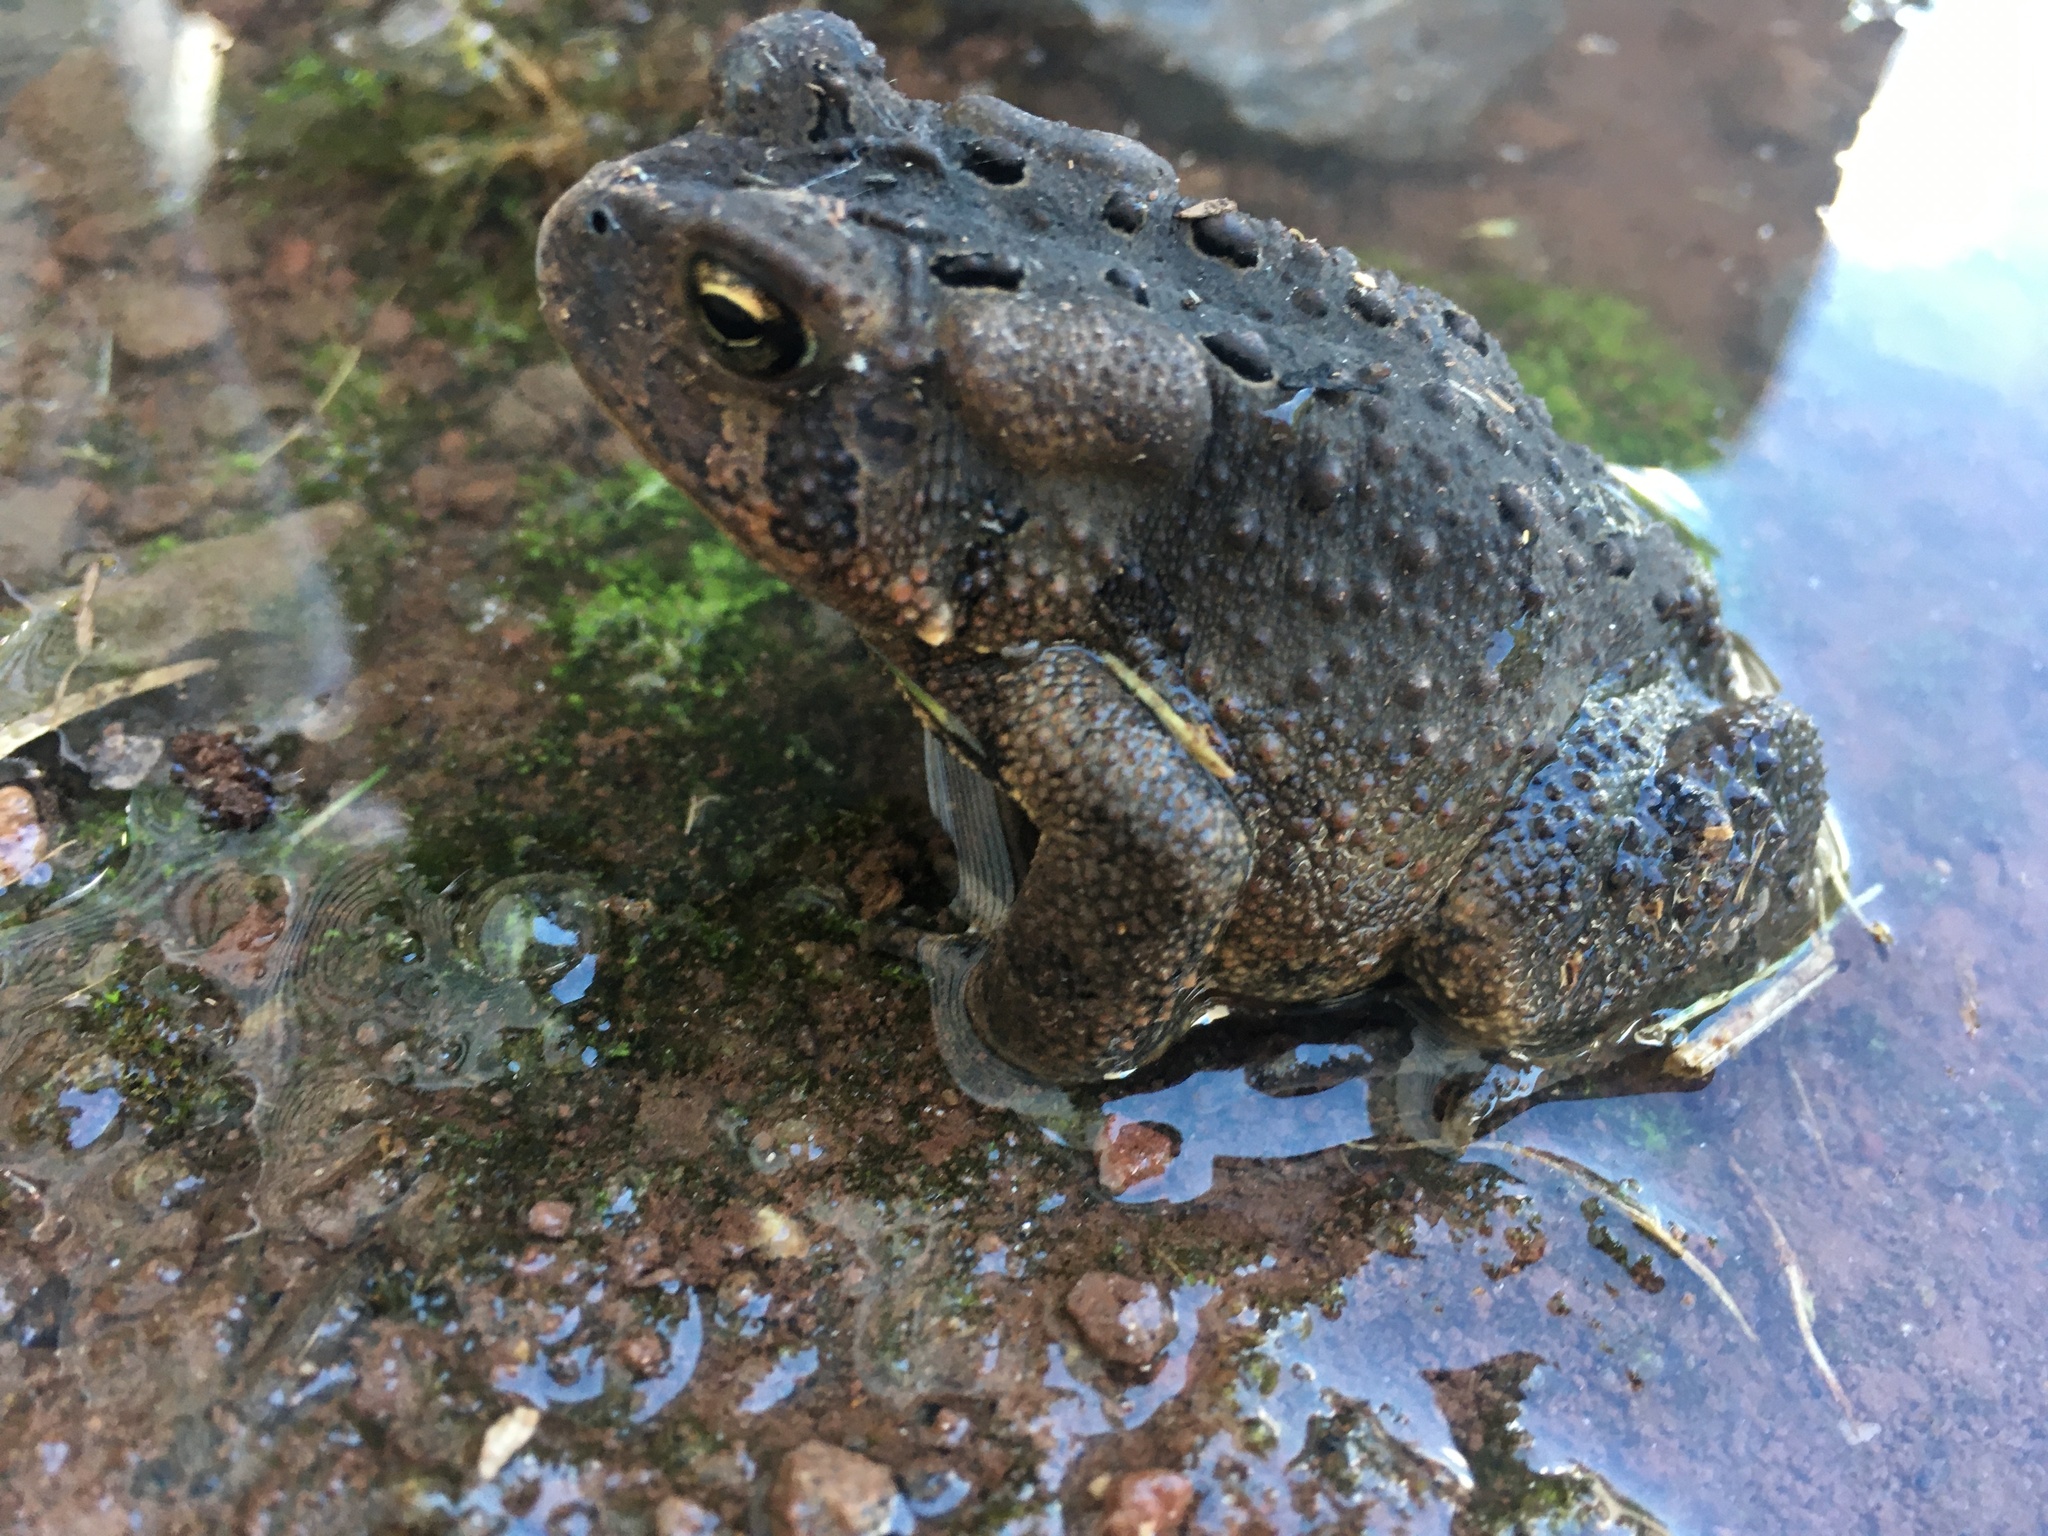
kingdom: Animalia
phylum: Chordata
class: Amphibia
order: Anura
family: Bufonidae
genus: Anaxyrus
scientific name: Anaxyrus americanus
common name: American toad
